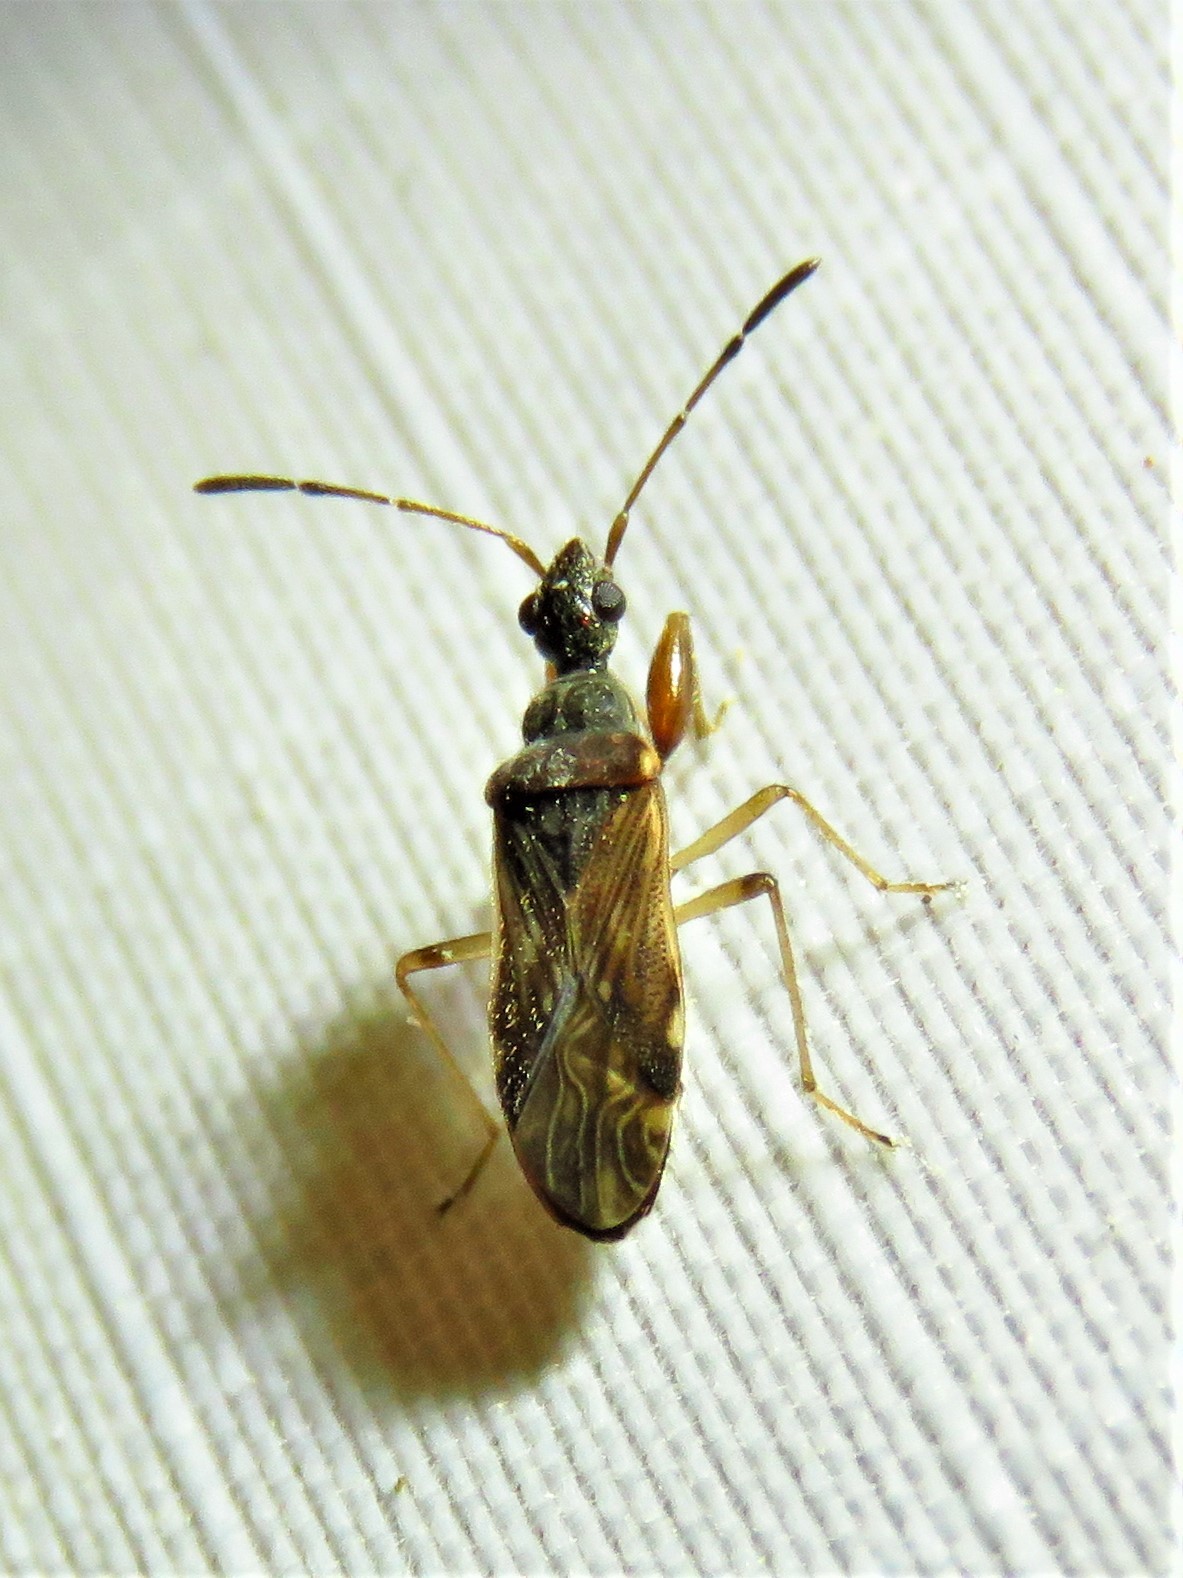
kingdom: Animalia
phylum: Arthropoda
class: Insecta
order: Hemiptera
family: Rhyparochromidae
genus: Heraeus
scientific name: Heraeus plebejus
